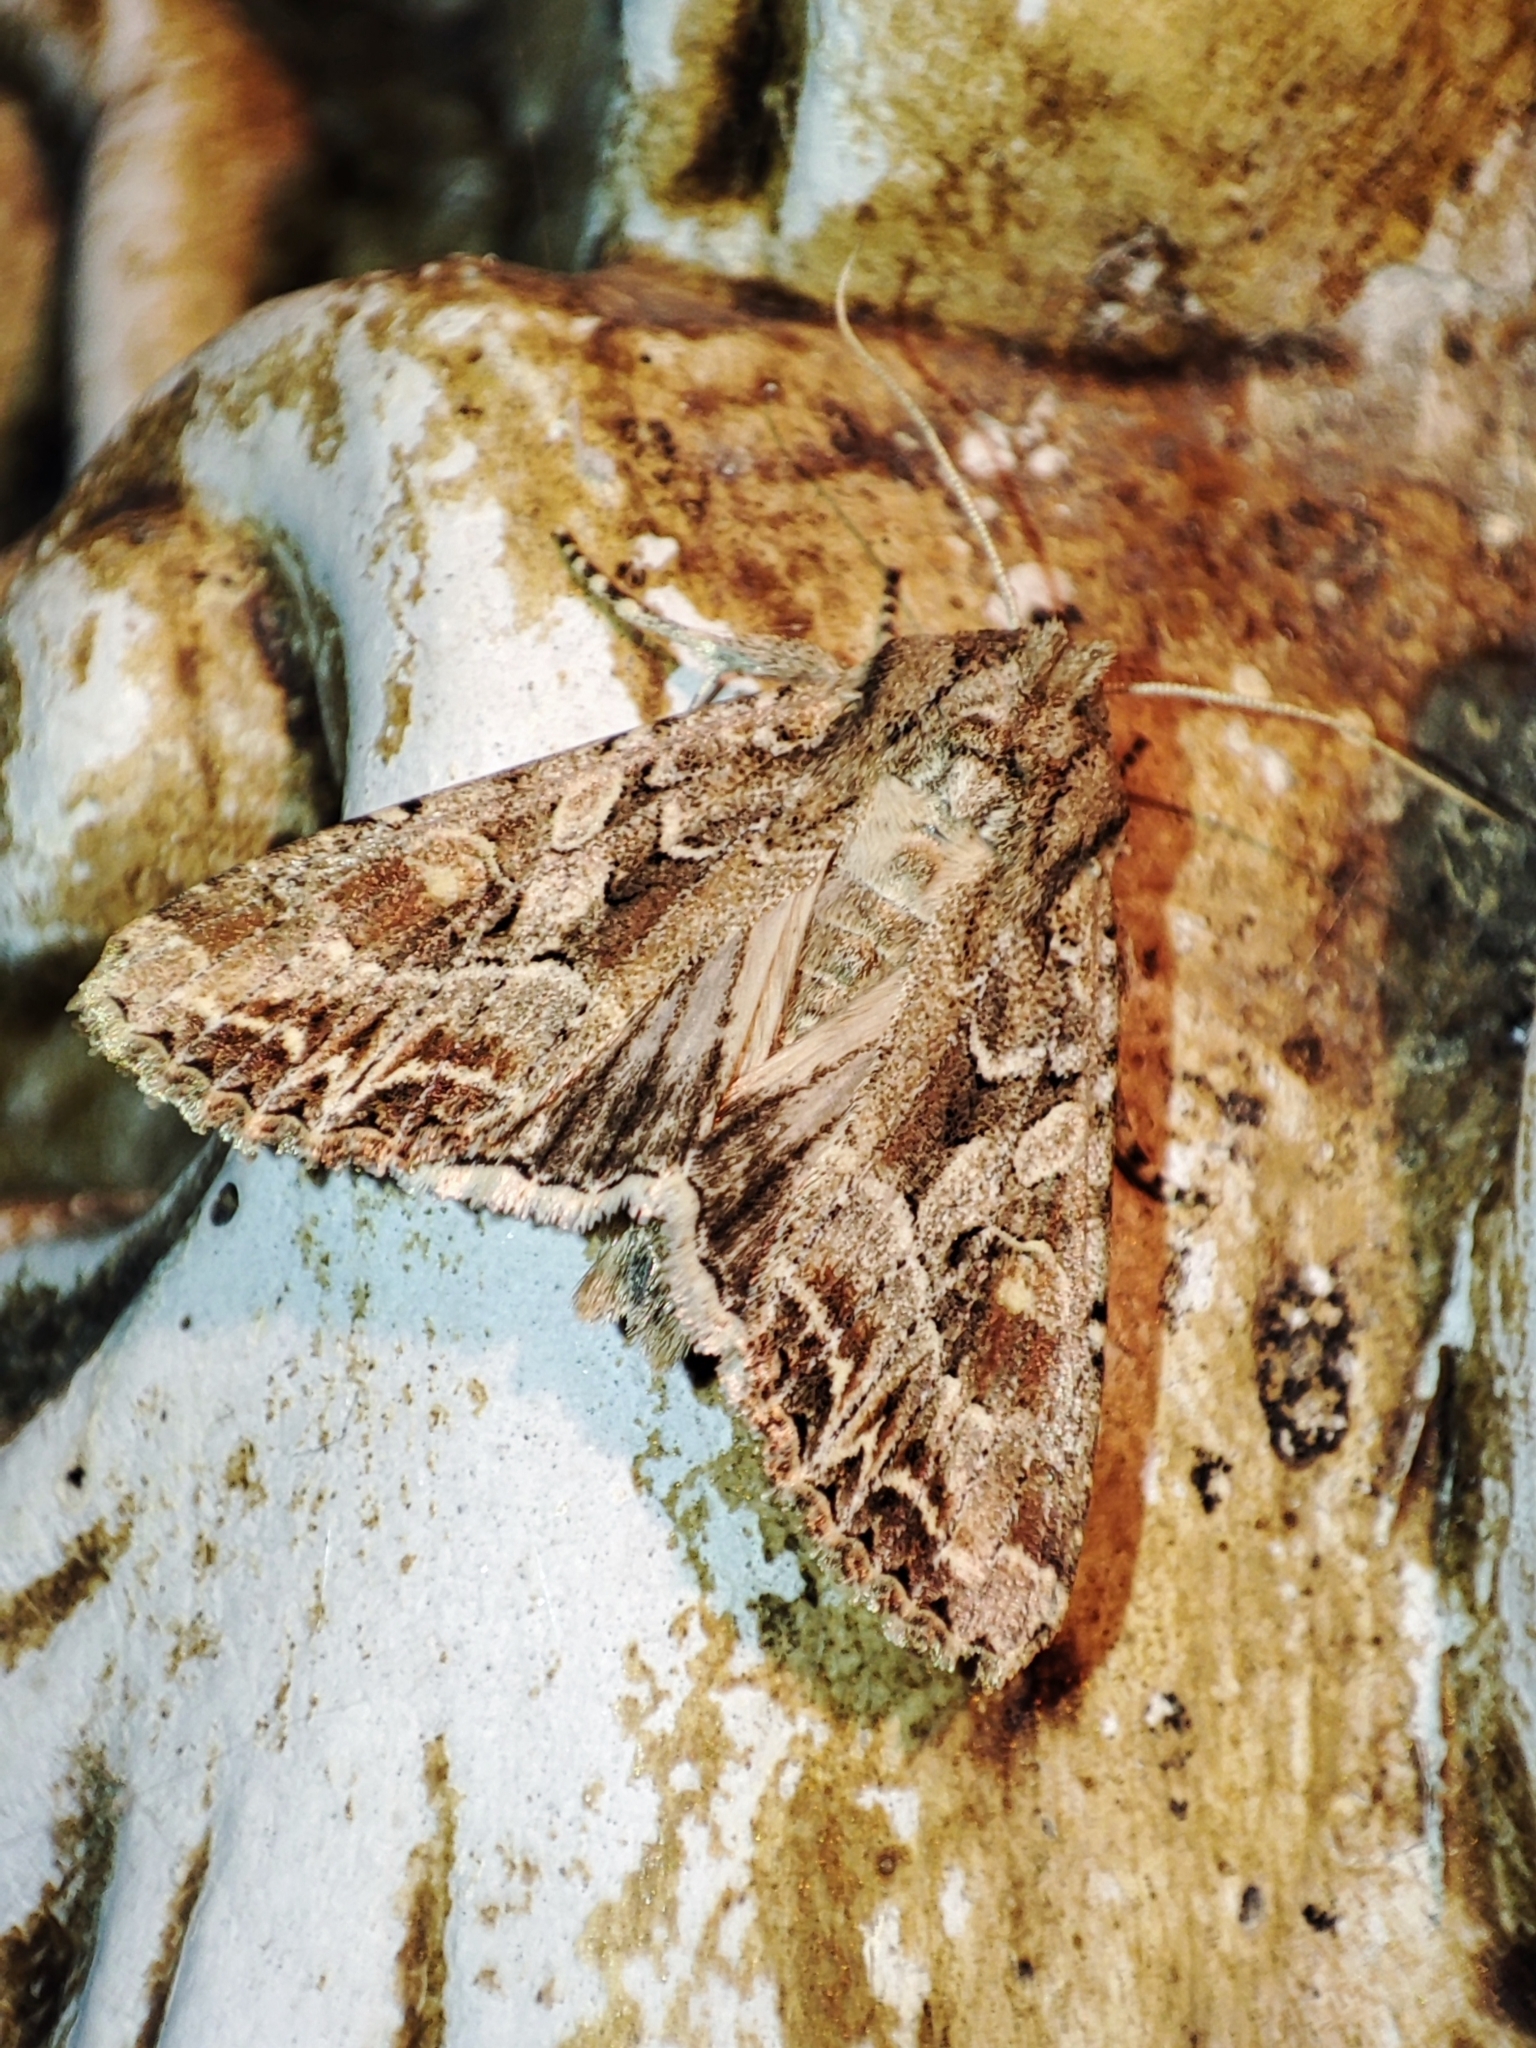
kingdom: Animalia
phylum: Arthropoda
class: Insecta
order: Lepidoptera
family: Noctuidae
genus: Lacanobia
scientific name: Lacanobia blenna
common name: Stranger
